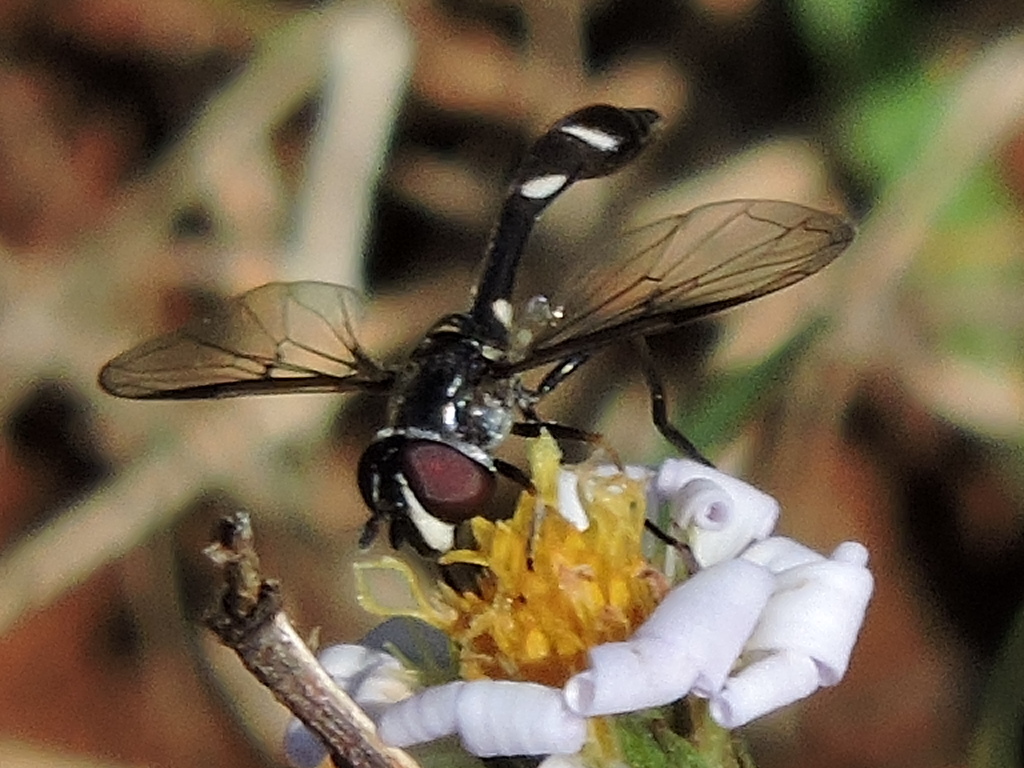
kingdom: Animalia
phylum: Arthropoda
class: Insecta
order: Diptera
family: Syrphidae
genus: Dioprosopa
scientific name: Dioprosopa clavatus
